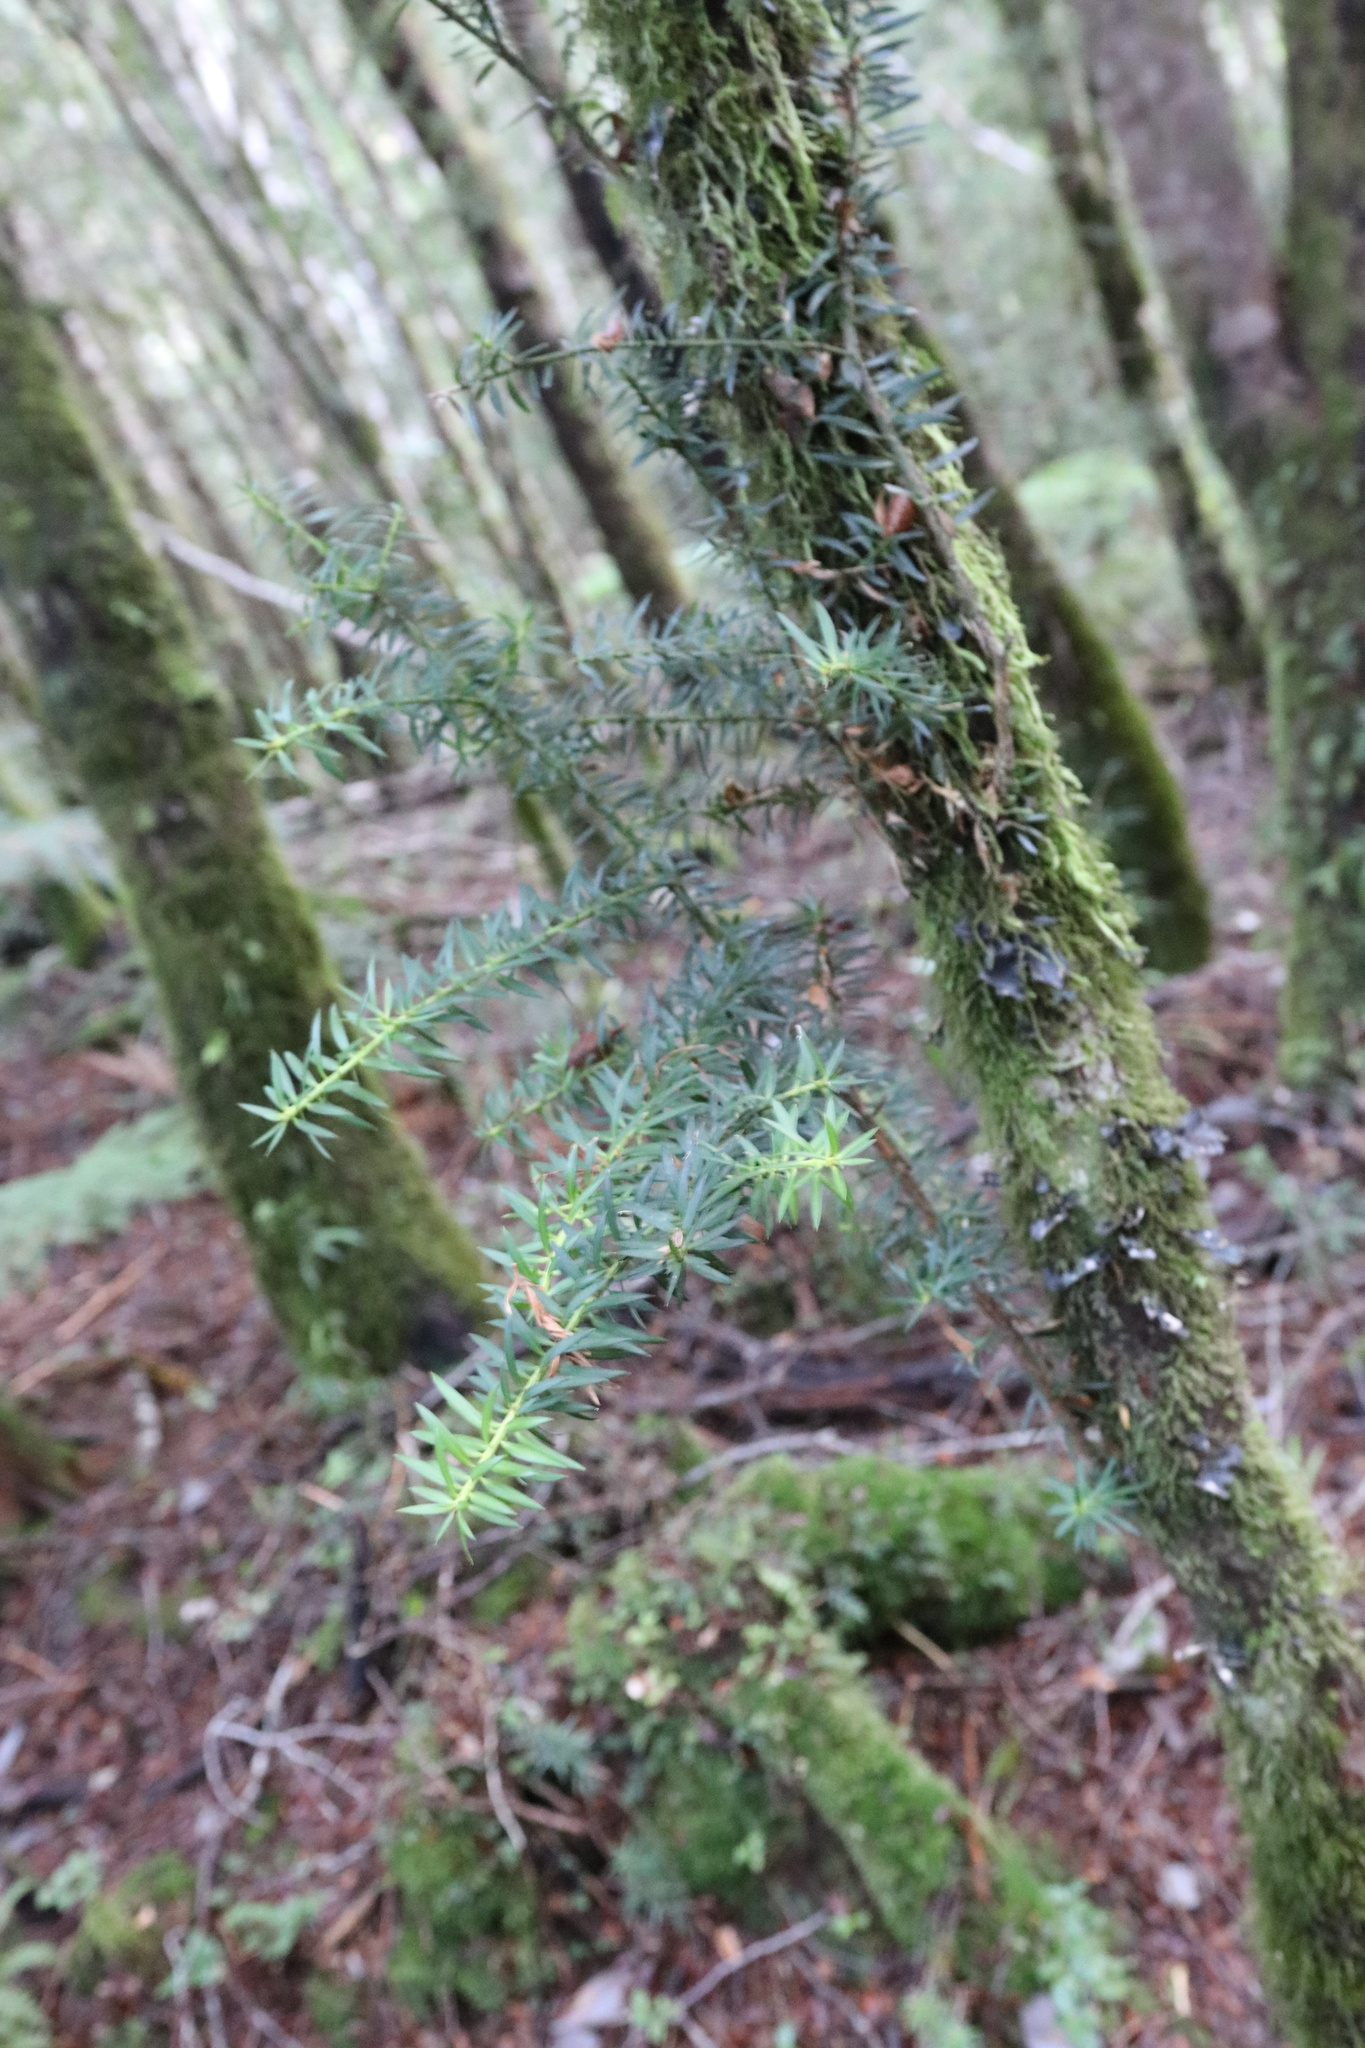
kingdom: Plantae
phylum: Tracheophyta
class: Pinopsida
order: Pinales
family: Podocarpaceae
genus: Saxegothaea
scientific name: Saxegothaea conspicua
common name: Prince albert's yew
